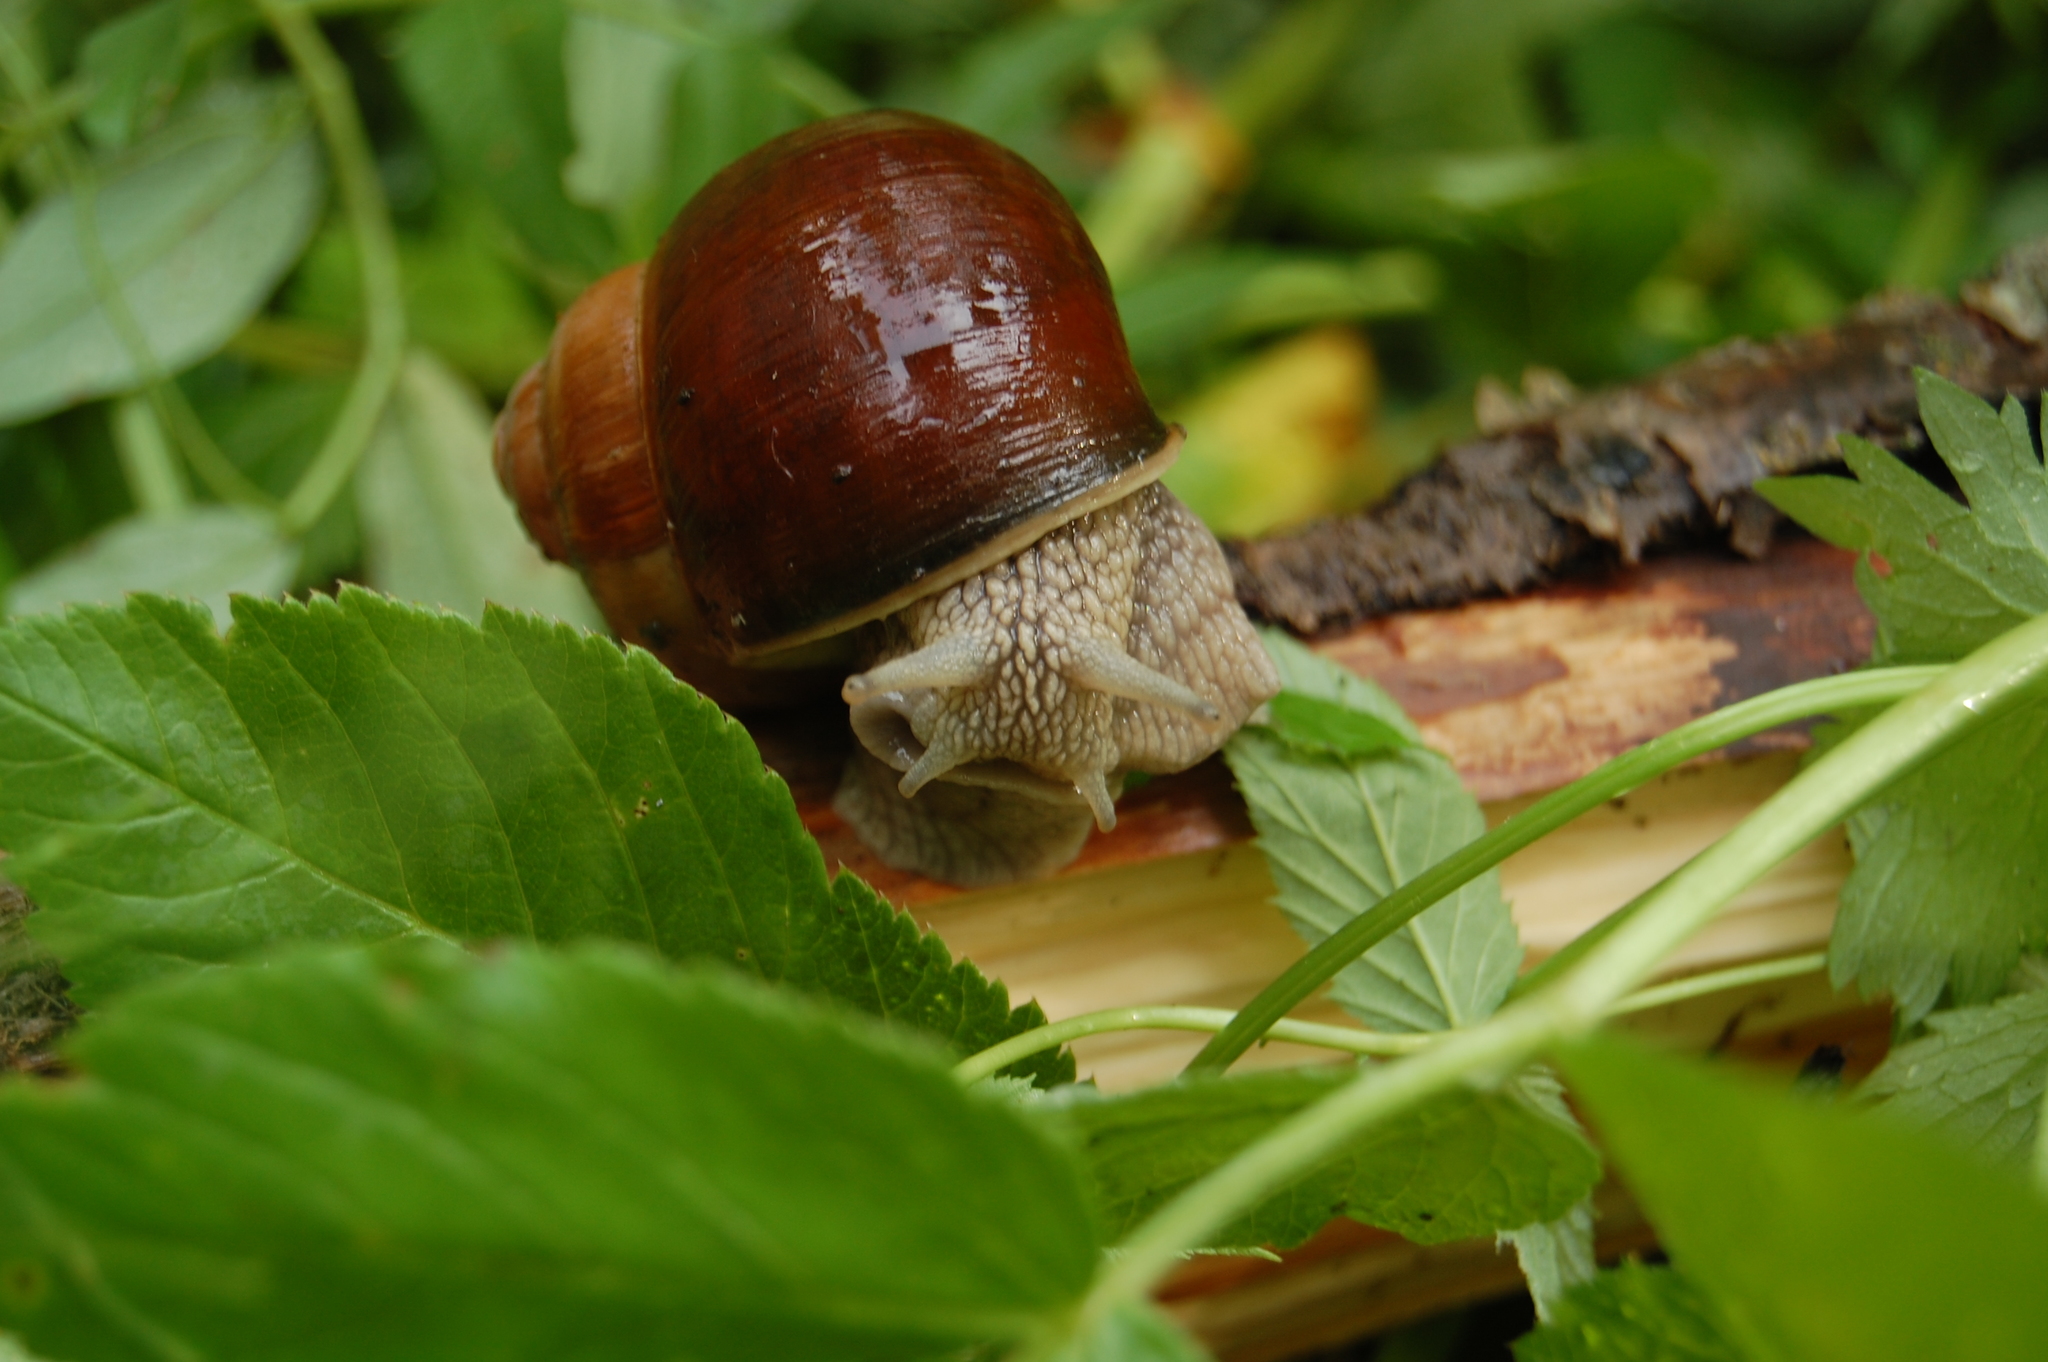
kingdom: Animalia
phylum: Mollusca
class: Gastropoda
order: Stylommatophora
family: Helicidae
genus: Helix
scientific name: Helix pomatia
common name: Roman snail
